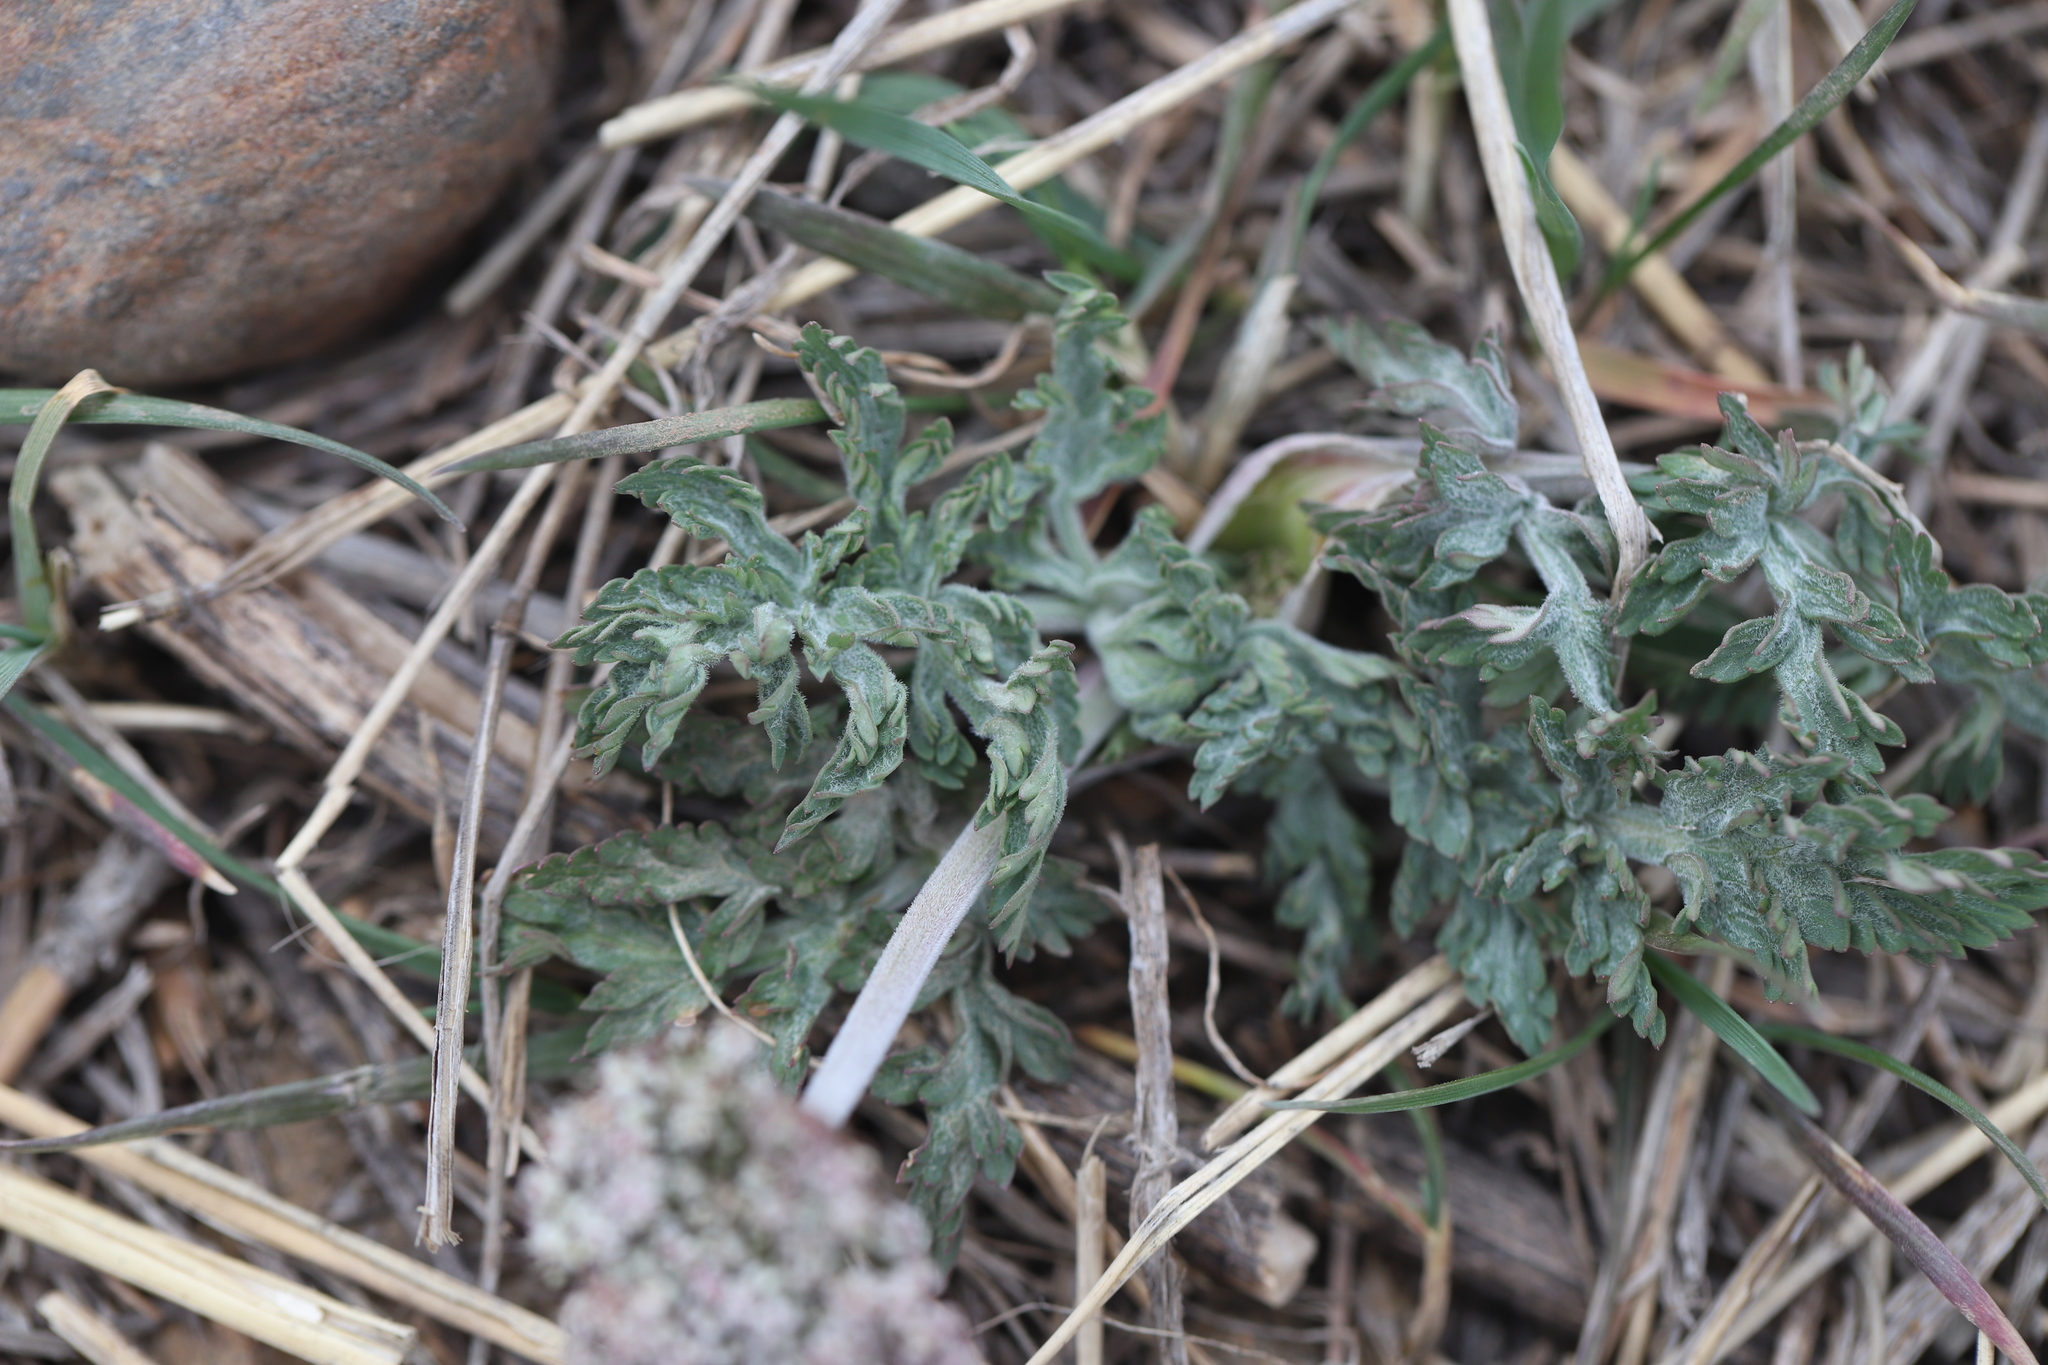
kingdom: Plantae
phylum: Tracheophyta
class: Magnoliopsida
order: Apiales
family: Apiaceae
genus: Lomatium
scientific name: Lomatium orientale
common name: Eastern cous
